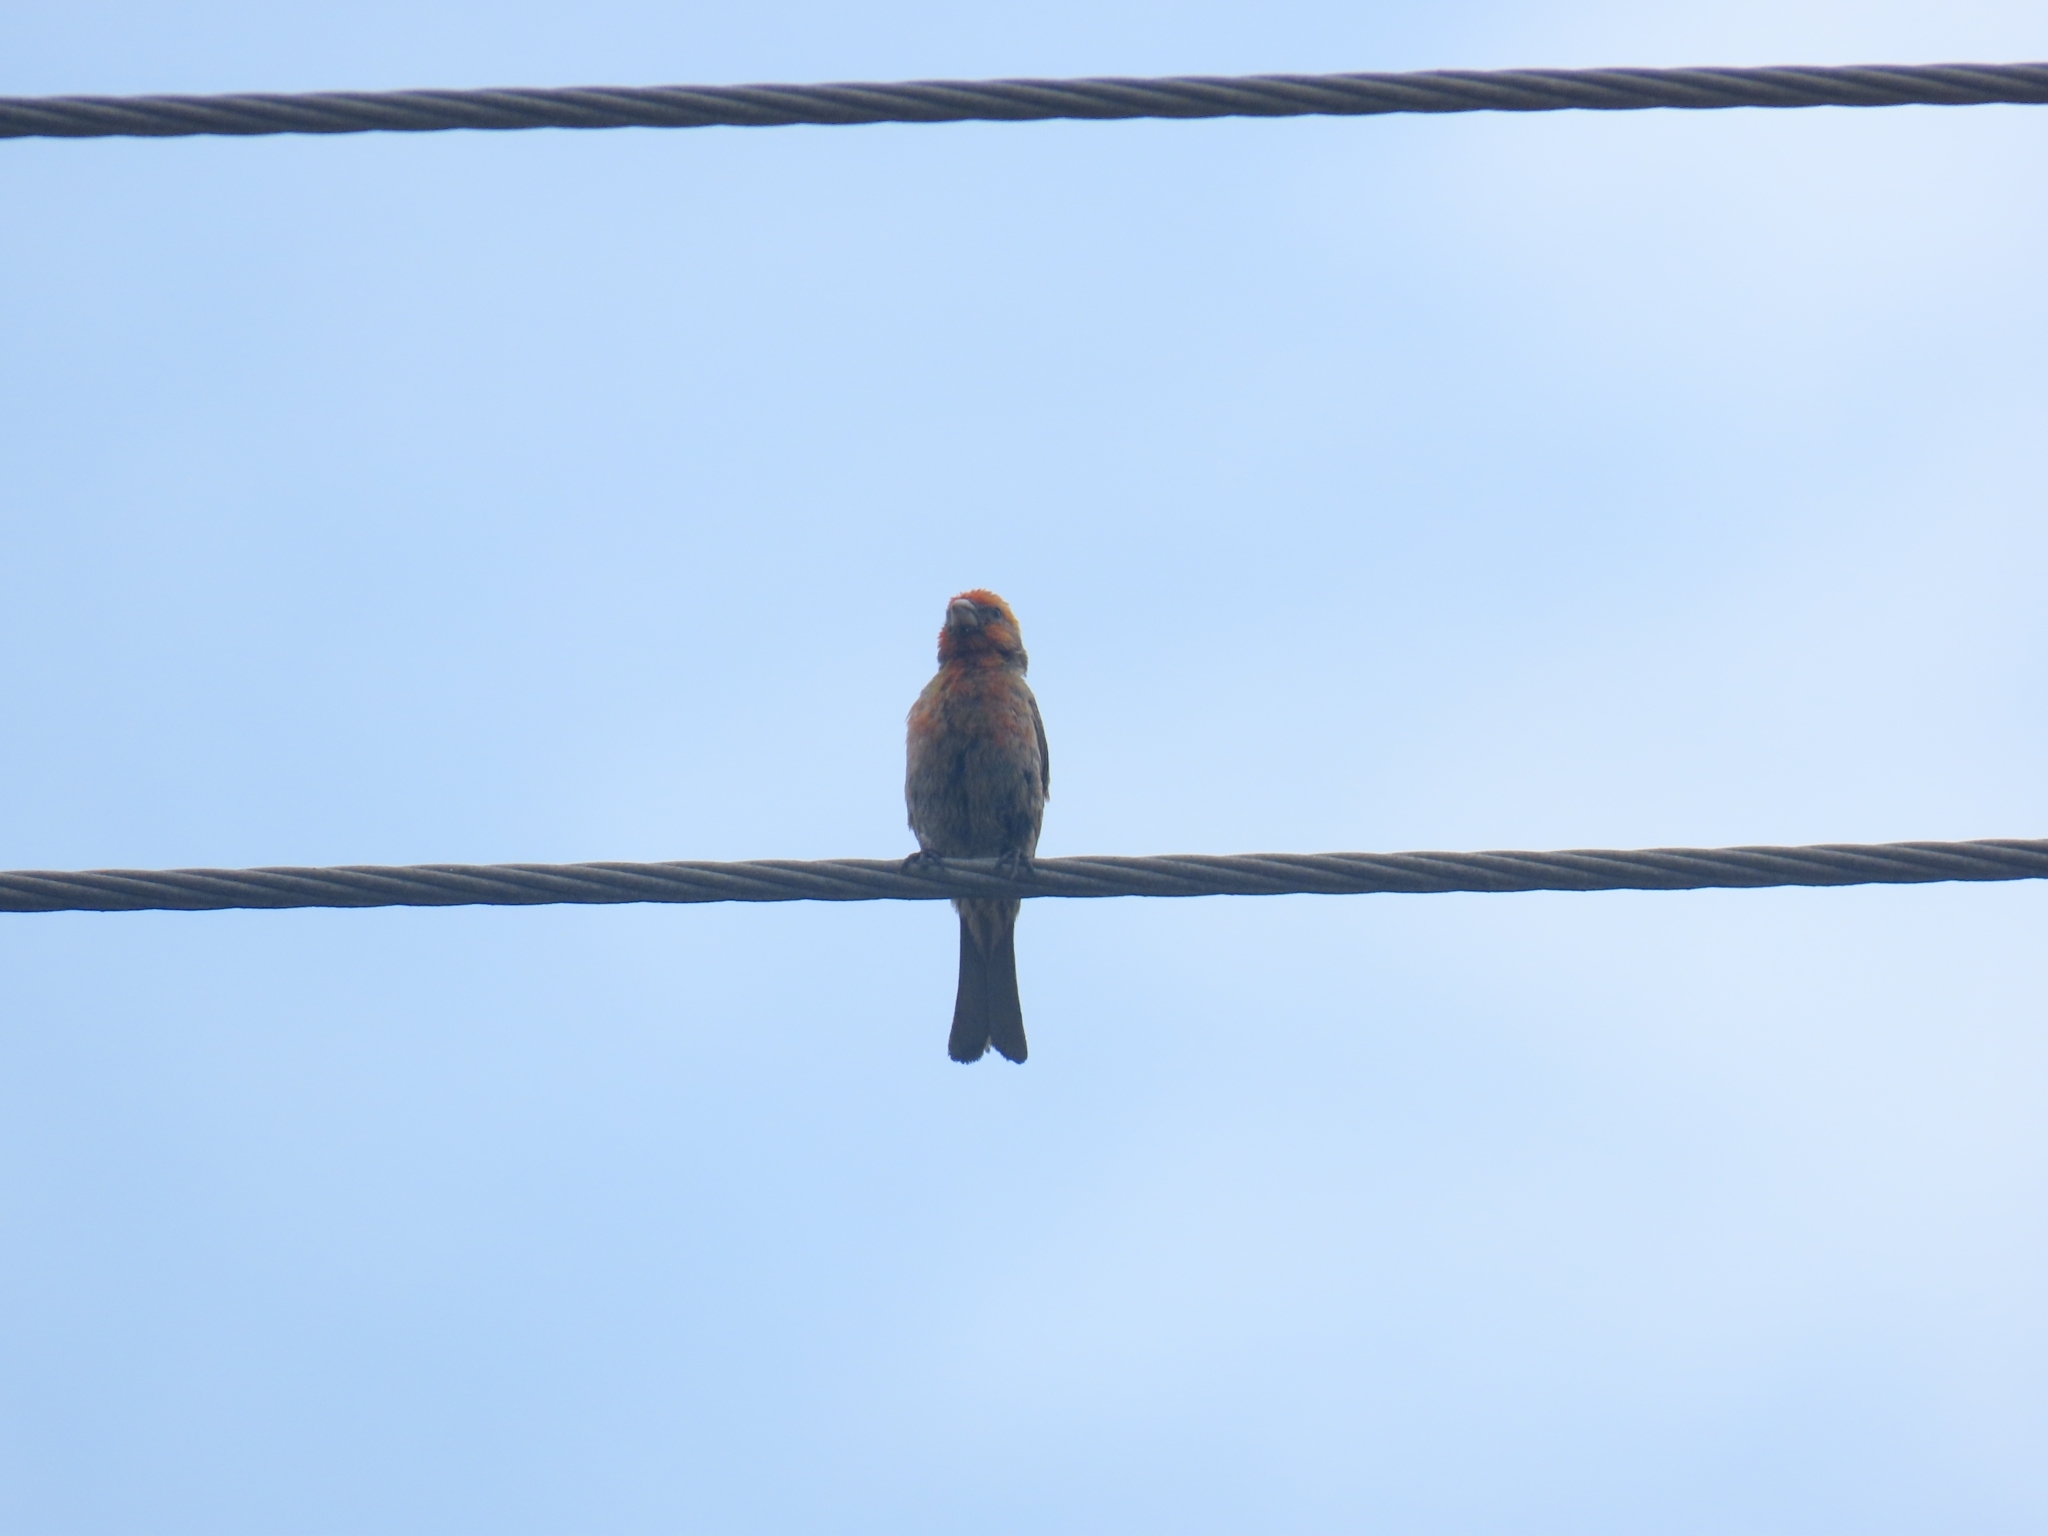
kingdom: Animalia
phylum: Chordata
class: Aves
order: Passeriformes
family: Fringillidae
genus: Haemorhous
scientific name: Haemorhous mexicanus
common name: House finch
